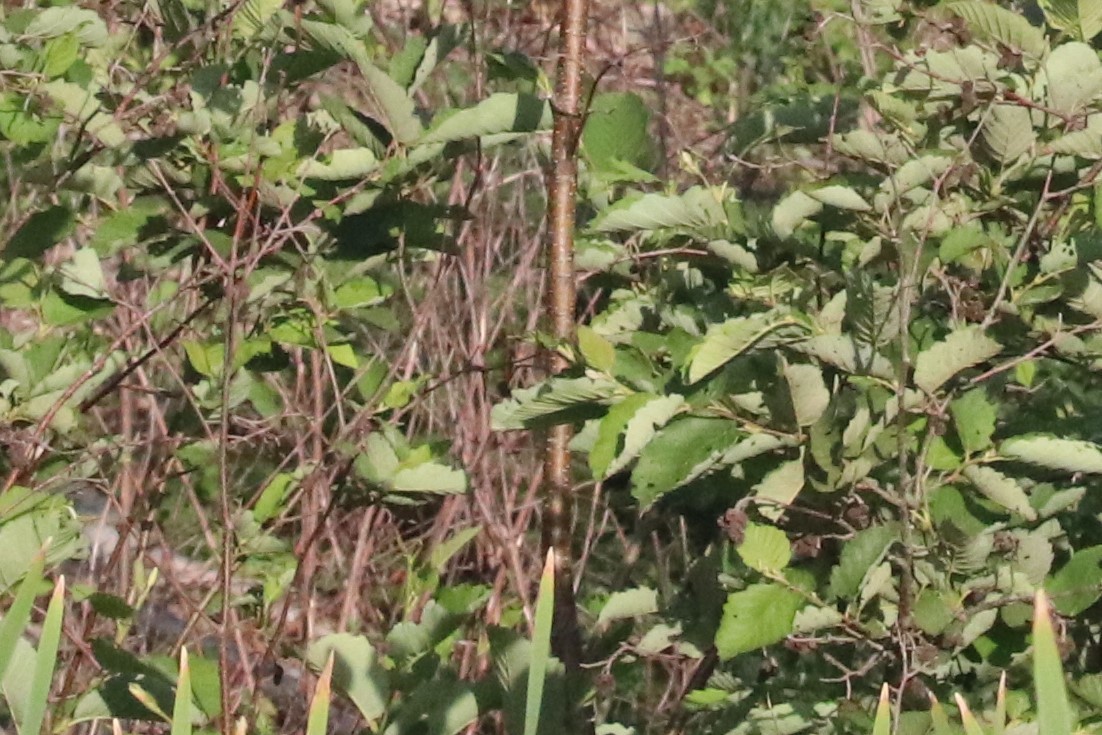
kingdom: Plantae
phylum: Tracheophyta
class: Magnoliopsida
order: Fagales
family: Betulaceae
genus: Alnus
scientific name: Alnus incana
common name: Grey alder
